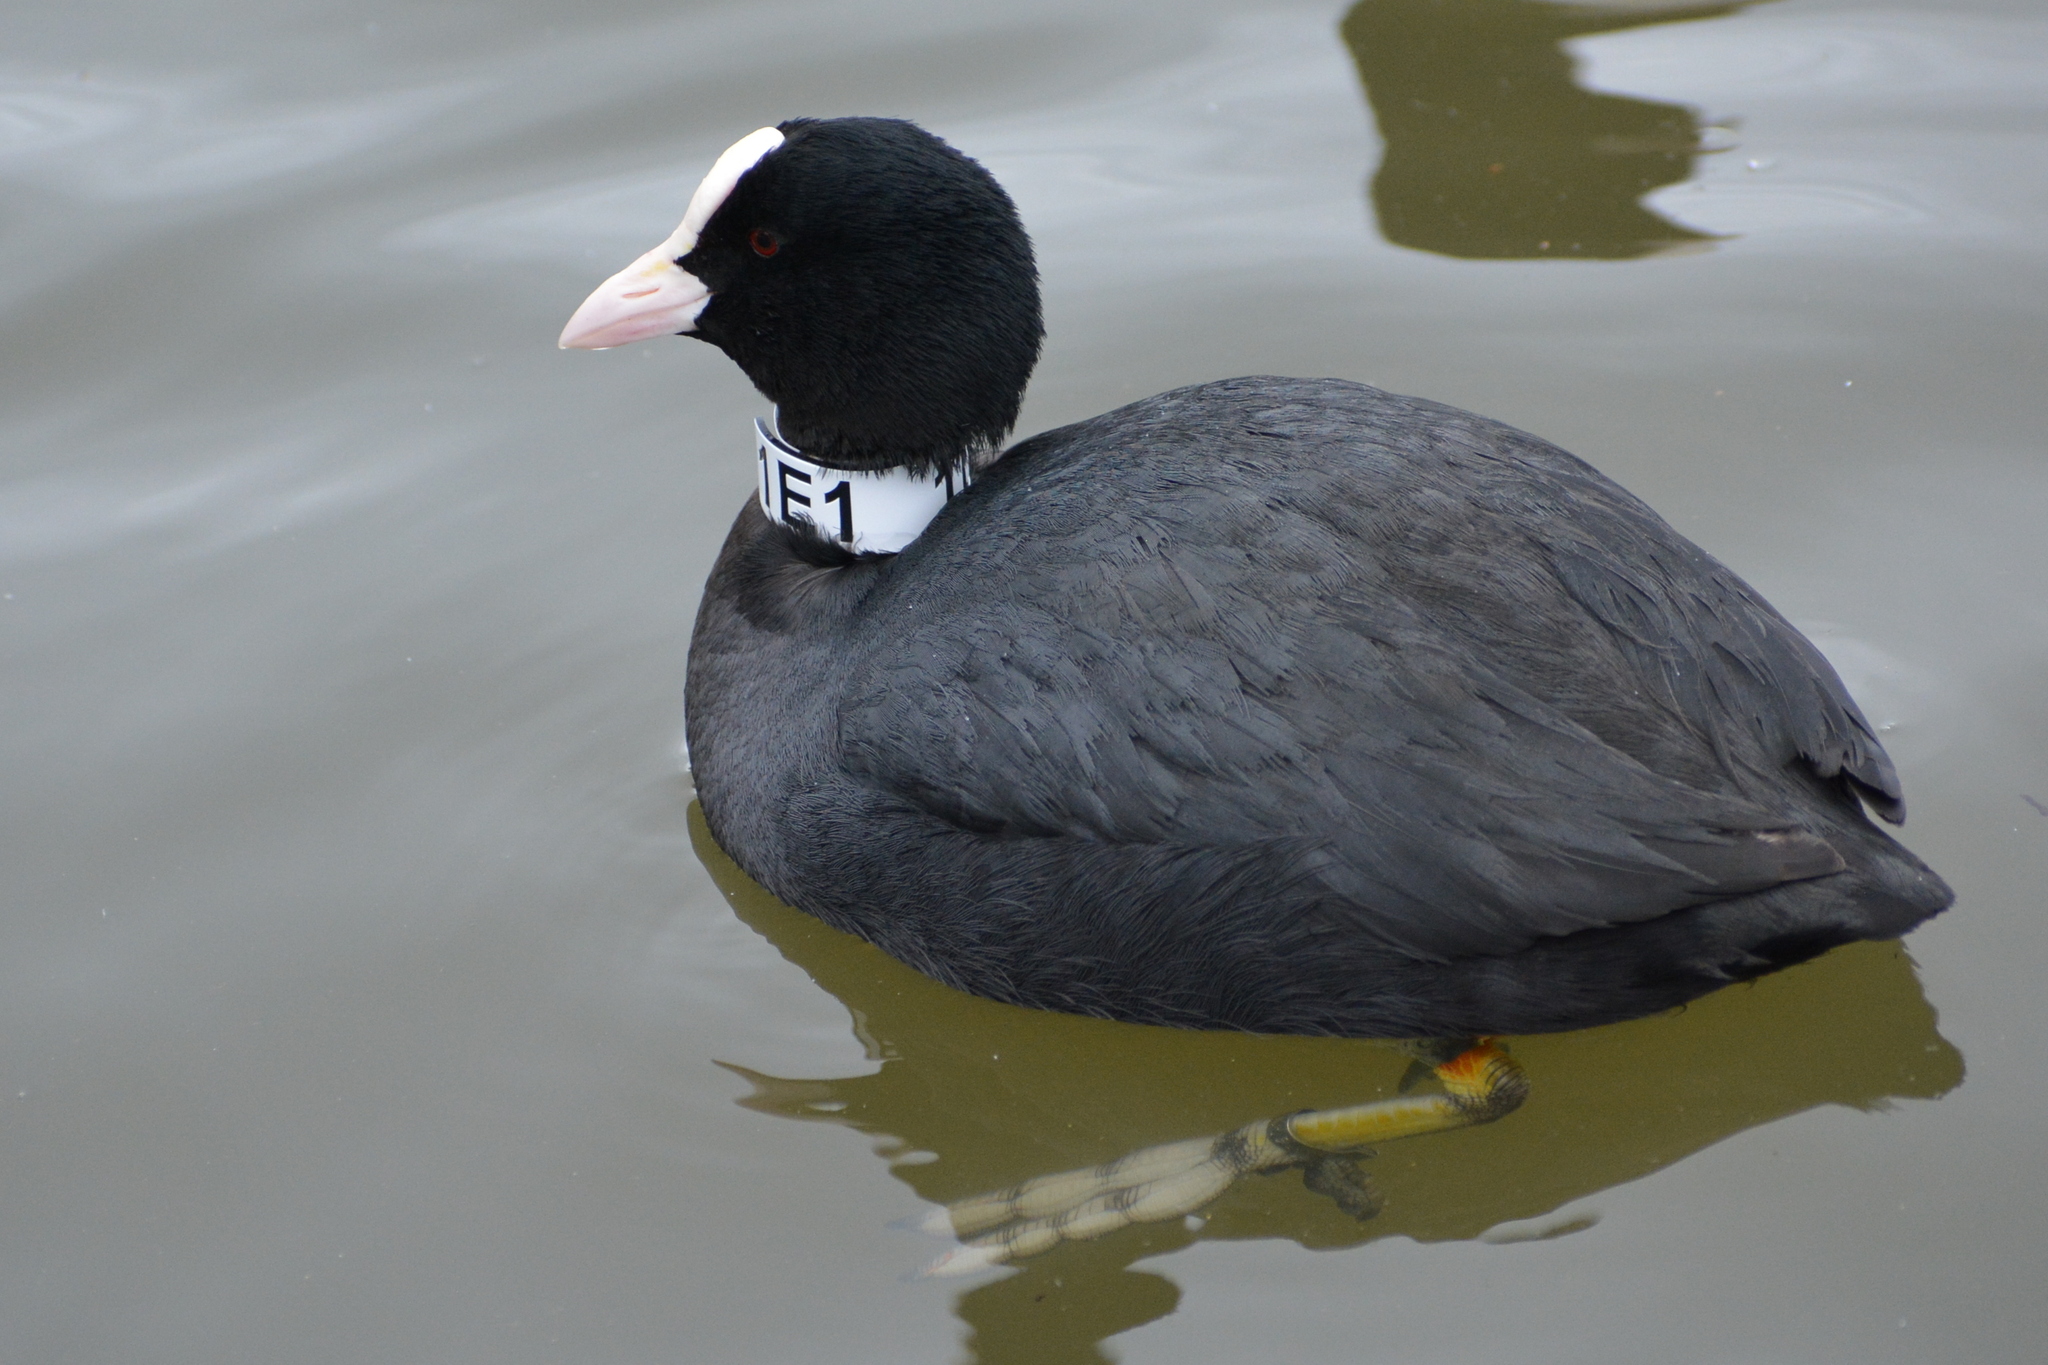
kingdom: Animalia
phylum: Chordata
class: Aves
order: Gruiformes
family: Rallidae
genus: Fulica
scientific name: Fulica atra
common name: Eurasian coot
